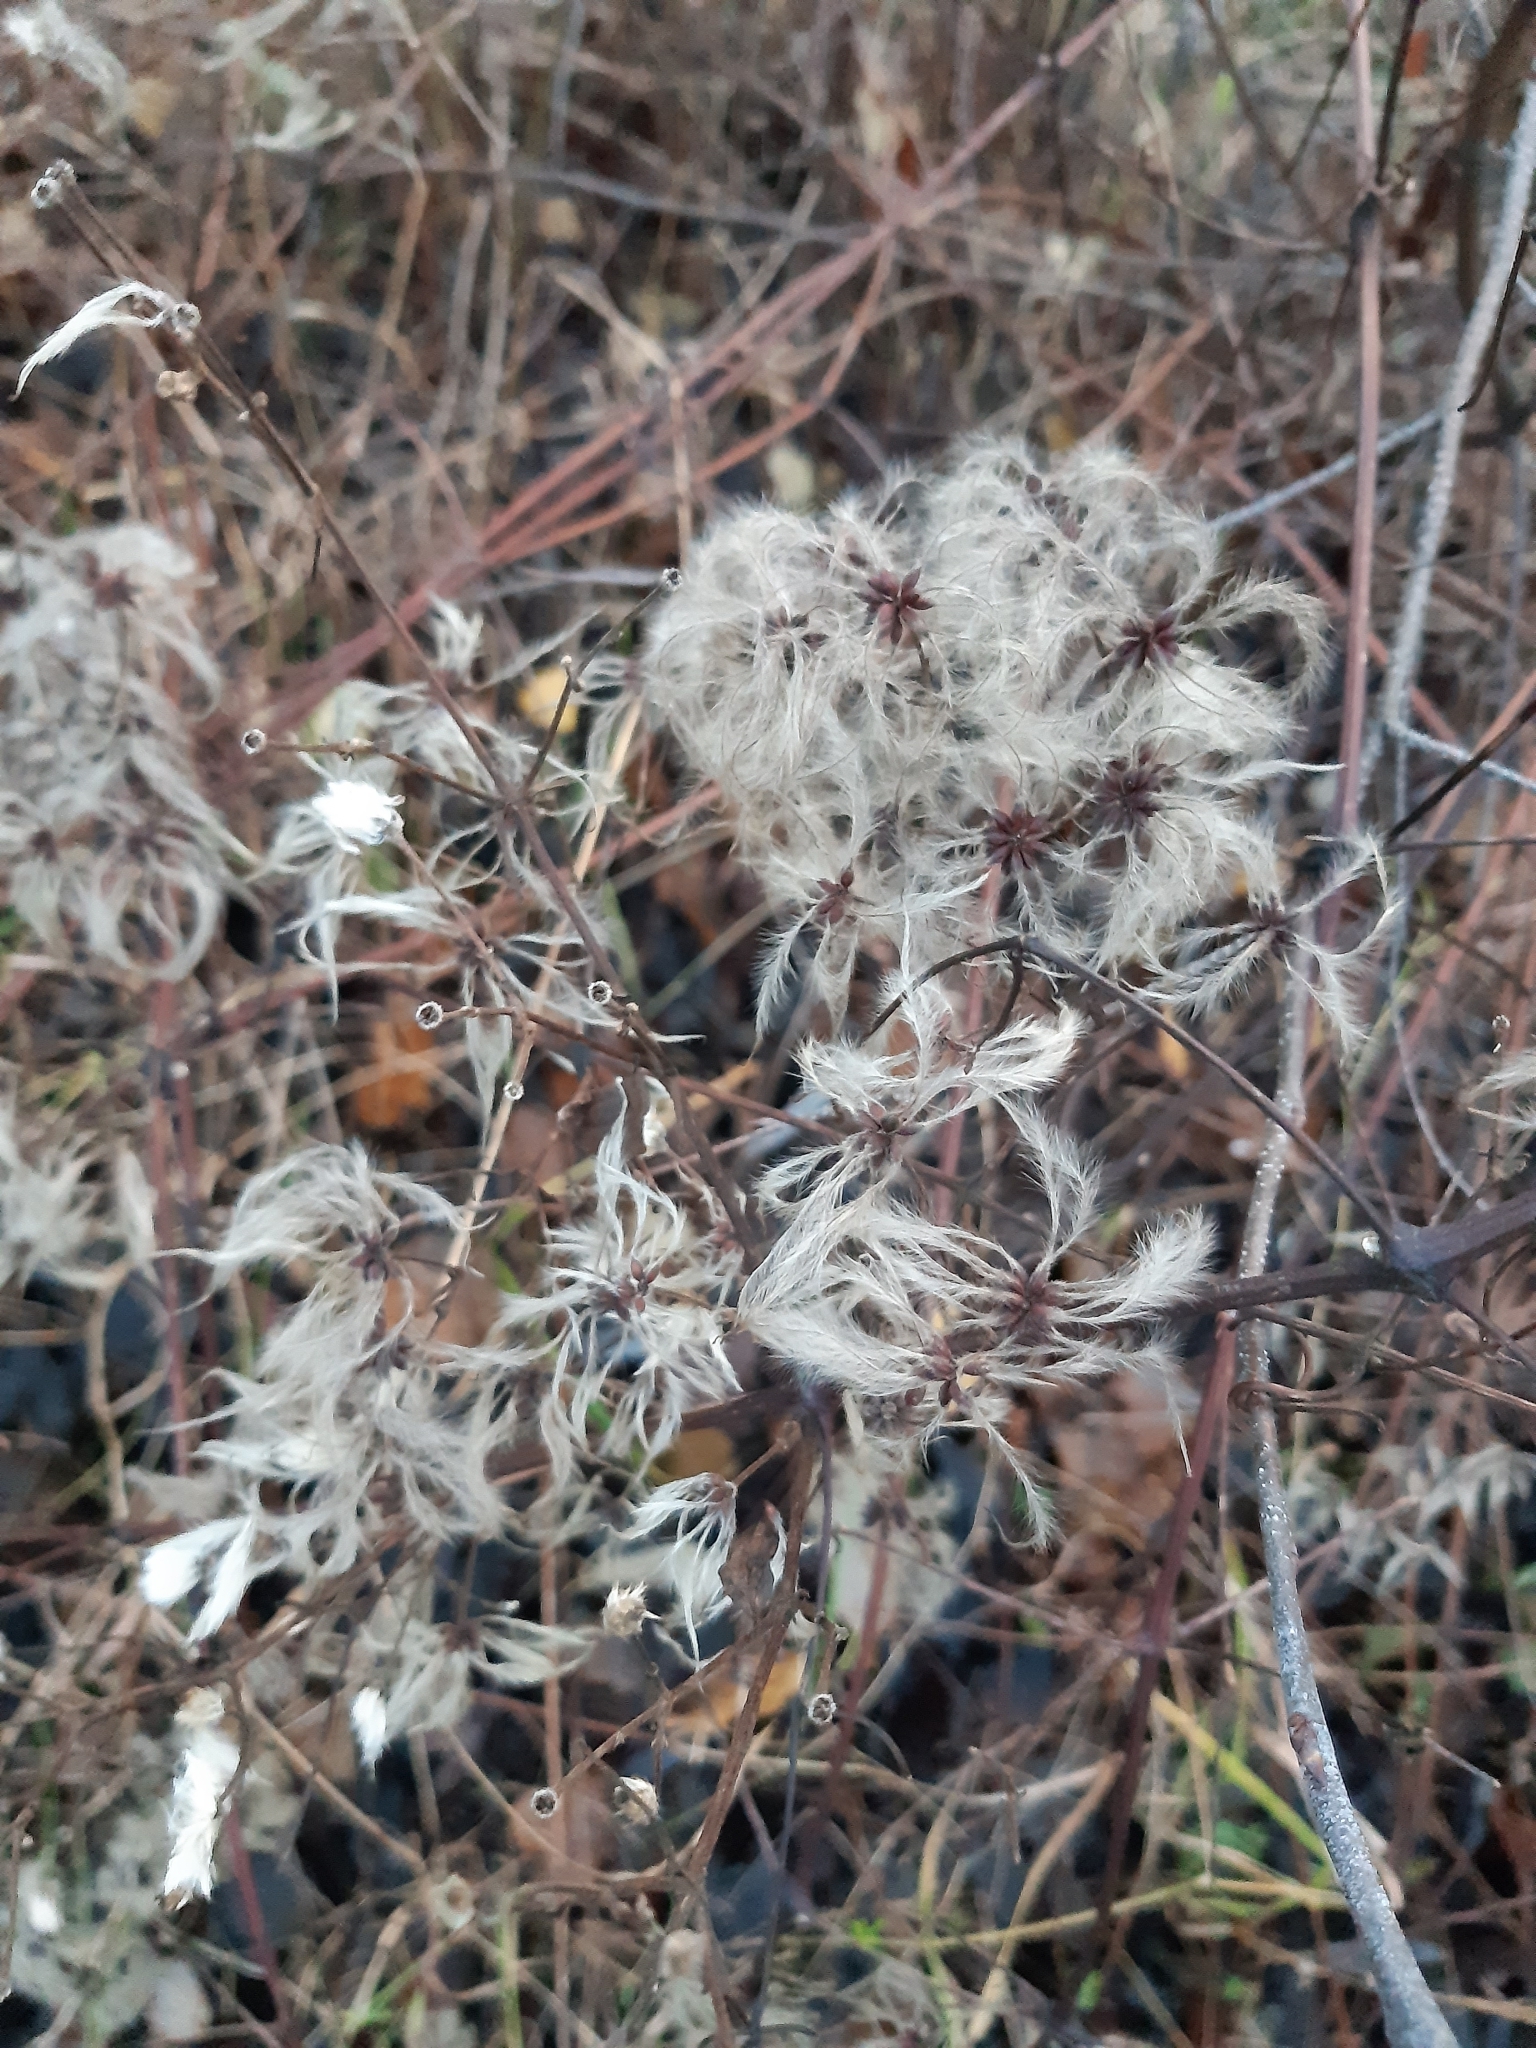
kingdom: Plantae
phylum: Tracheophyta
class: Magnoliopsida
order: Ranunculales
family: Ranunculaceae
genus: Clematis
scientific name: Clematis vitalba
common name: Evergreen clematis
